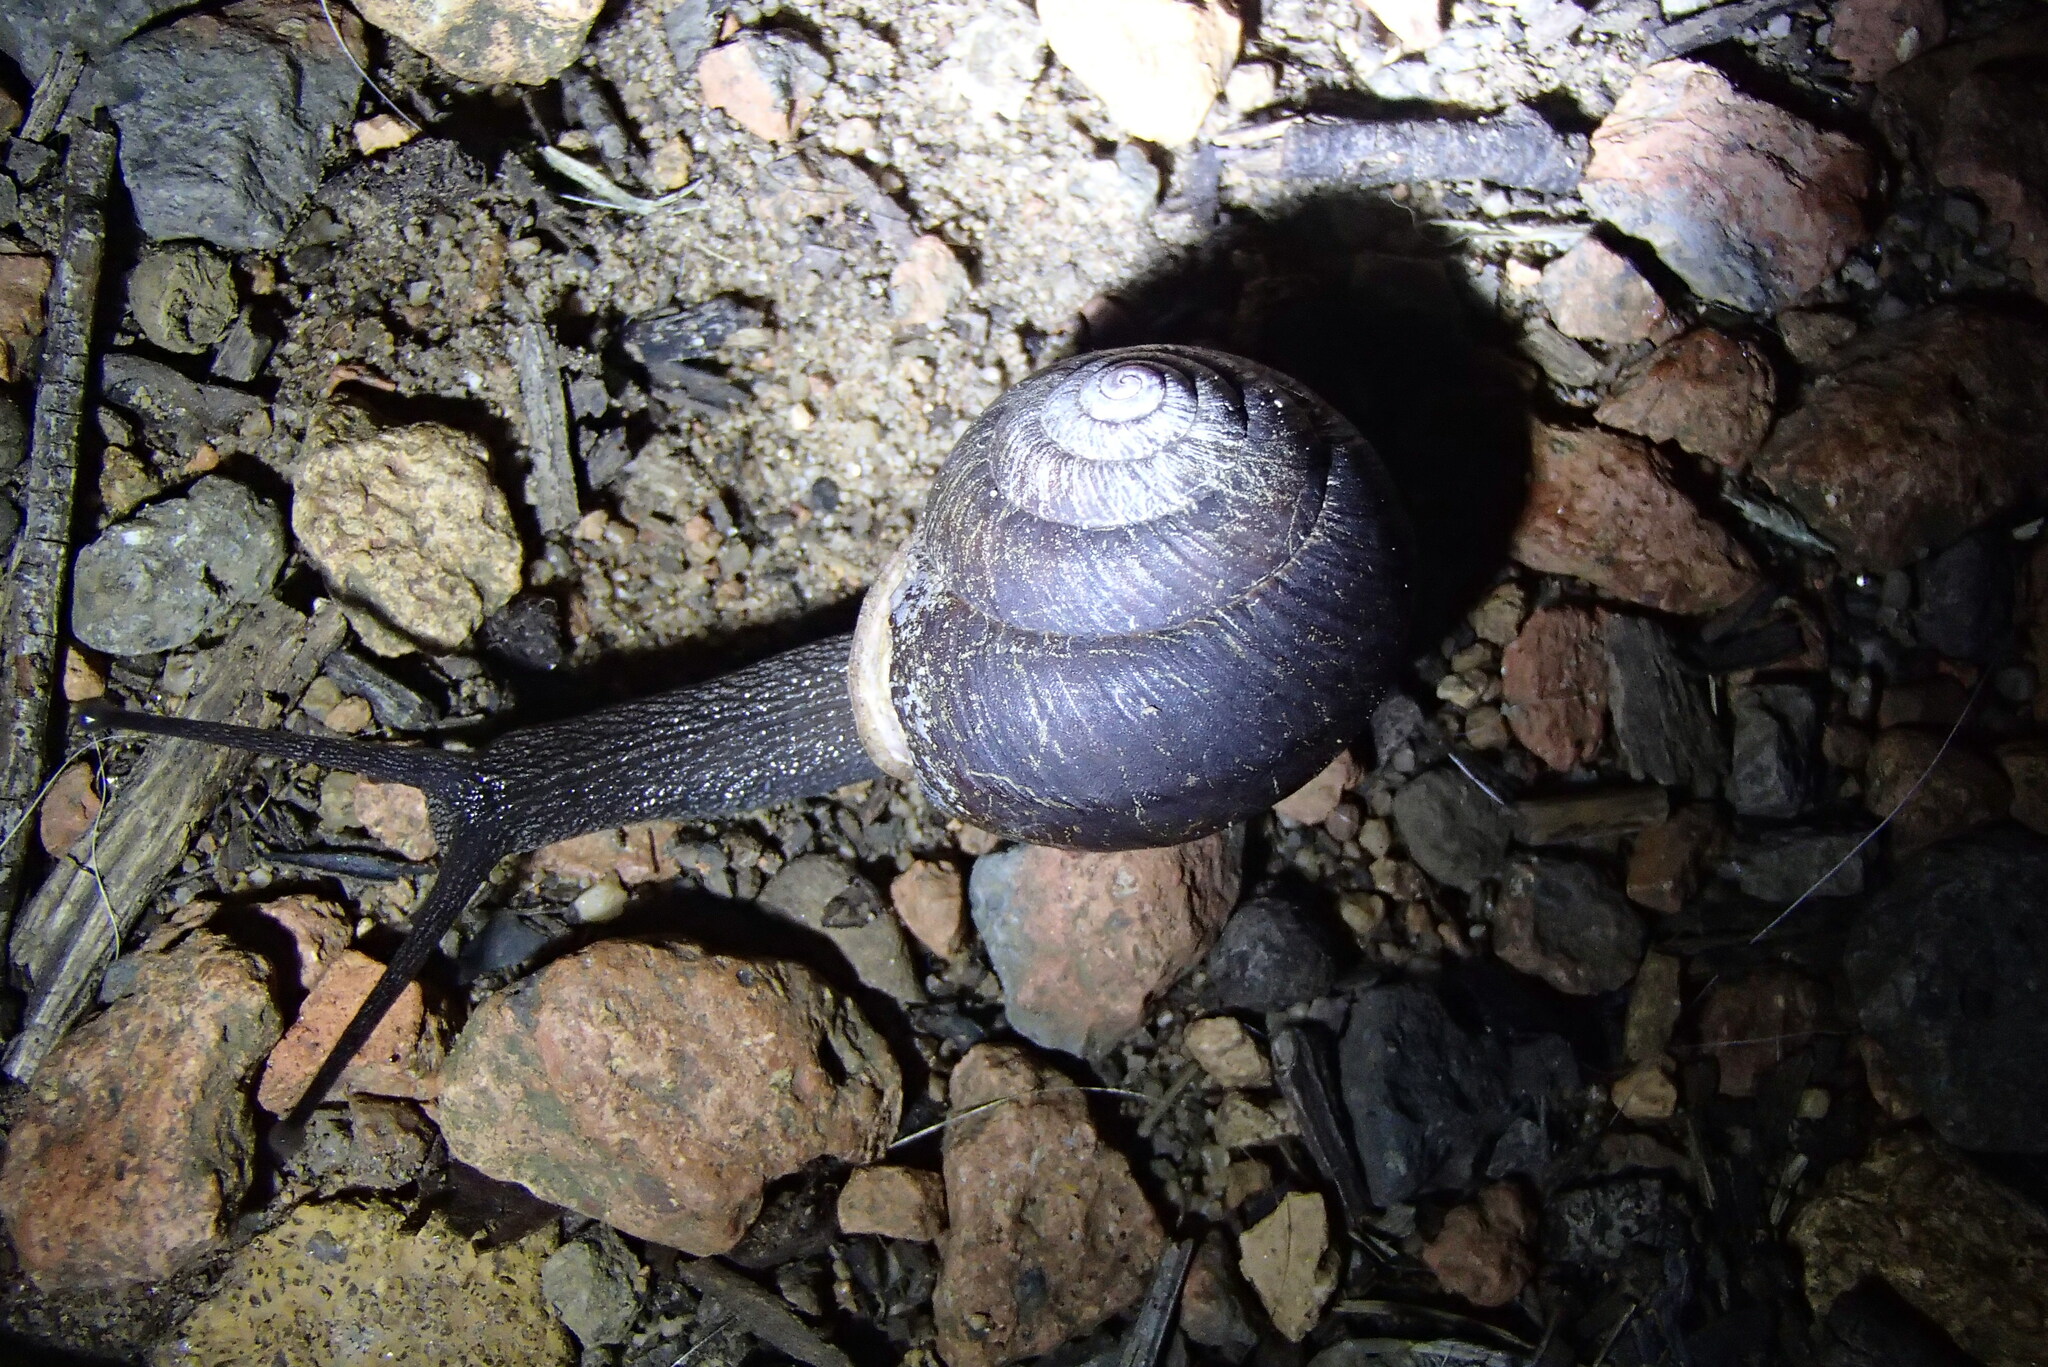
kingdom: Animalia
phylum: Mollusca
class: Gastropoda
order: Stylommatophora
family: Camaenidae
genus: Pommerhelix
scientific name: Pommerhelix monacha
